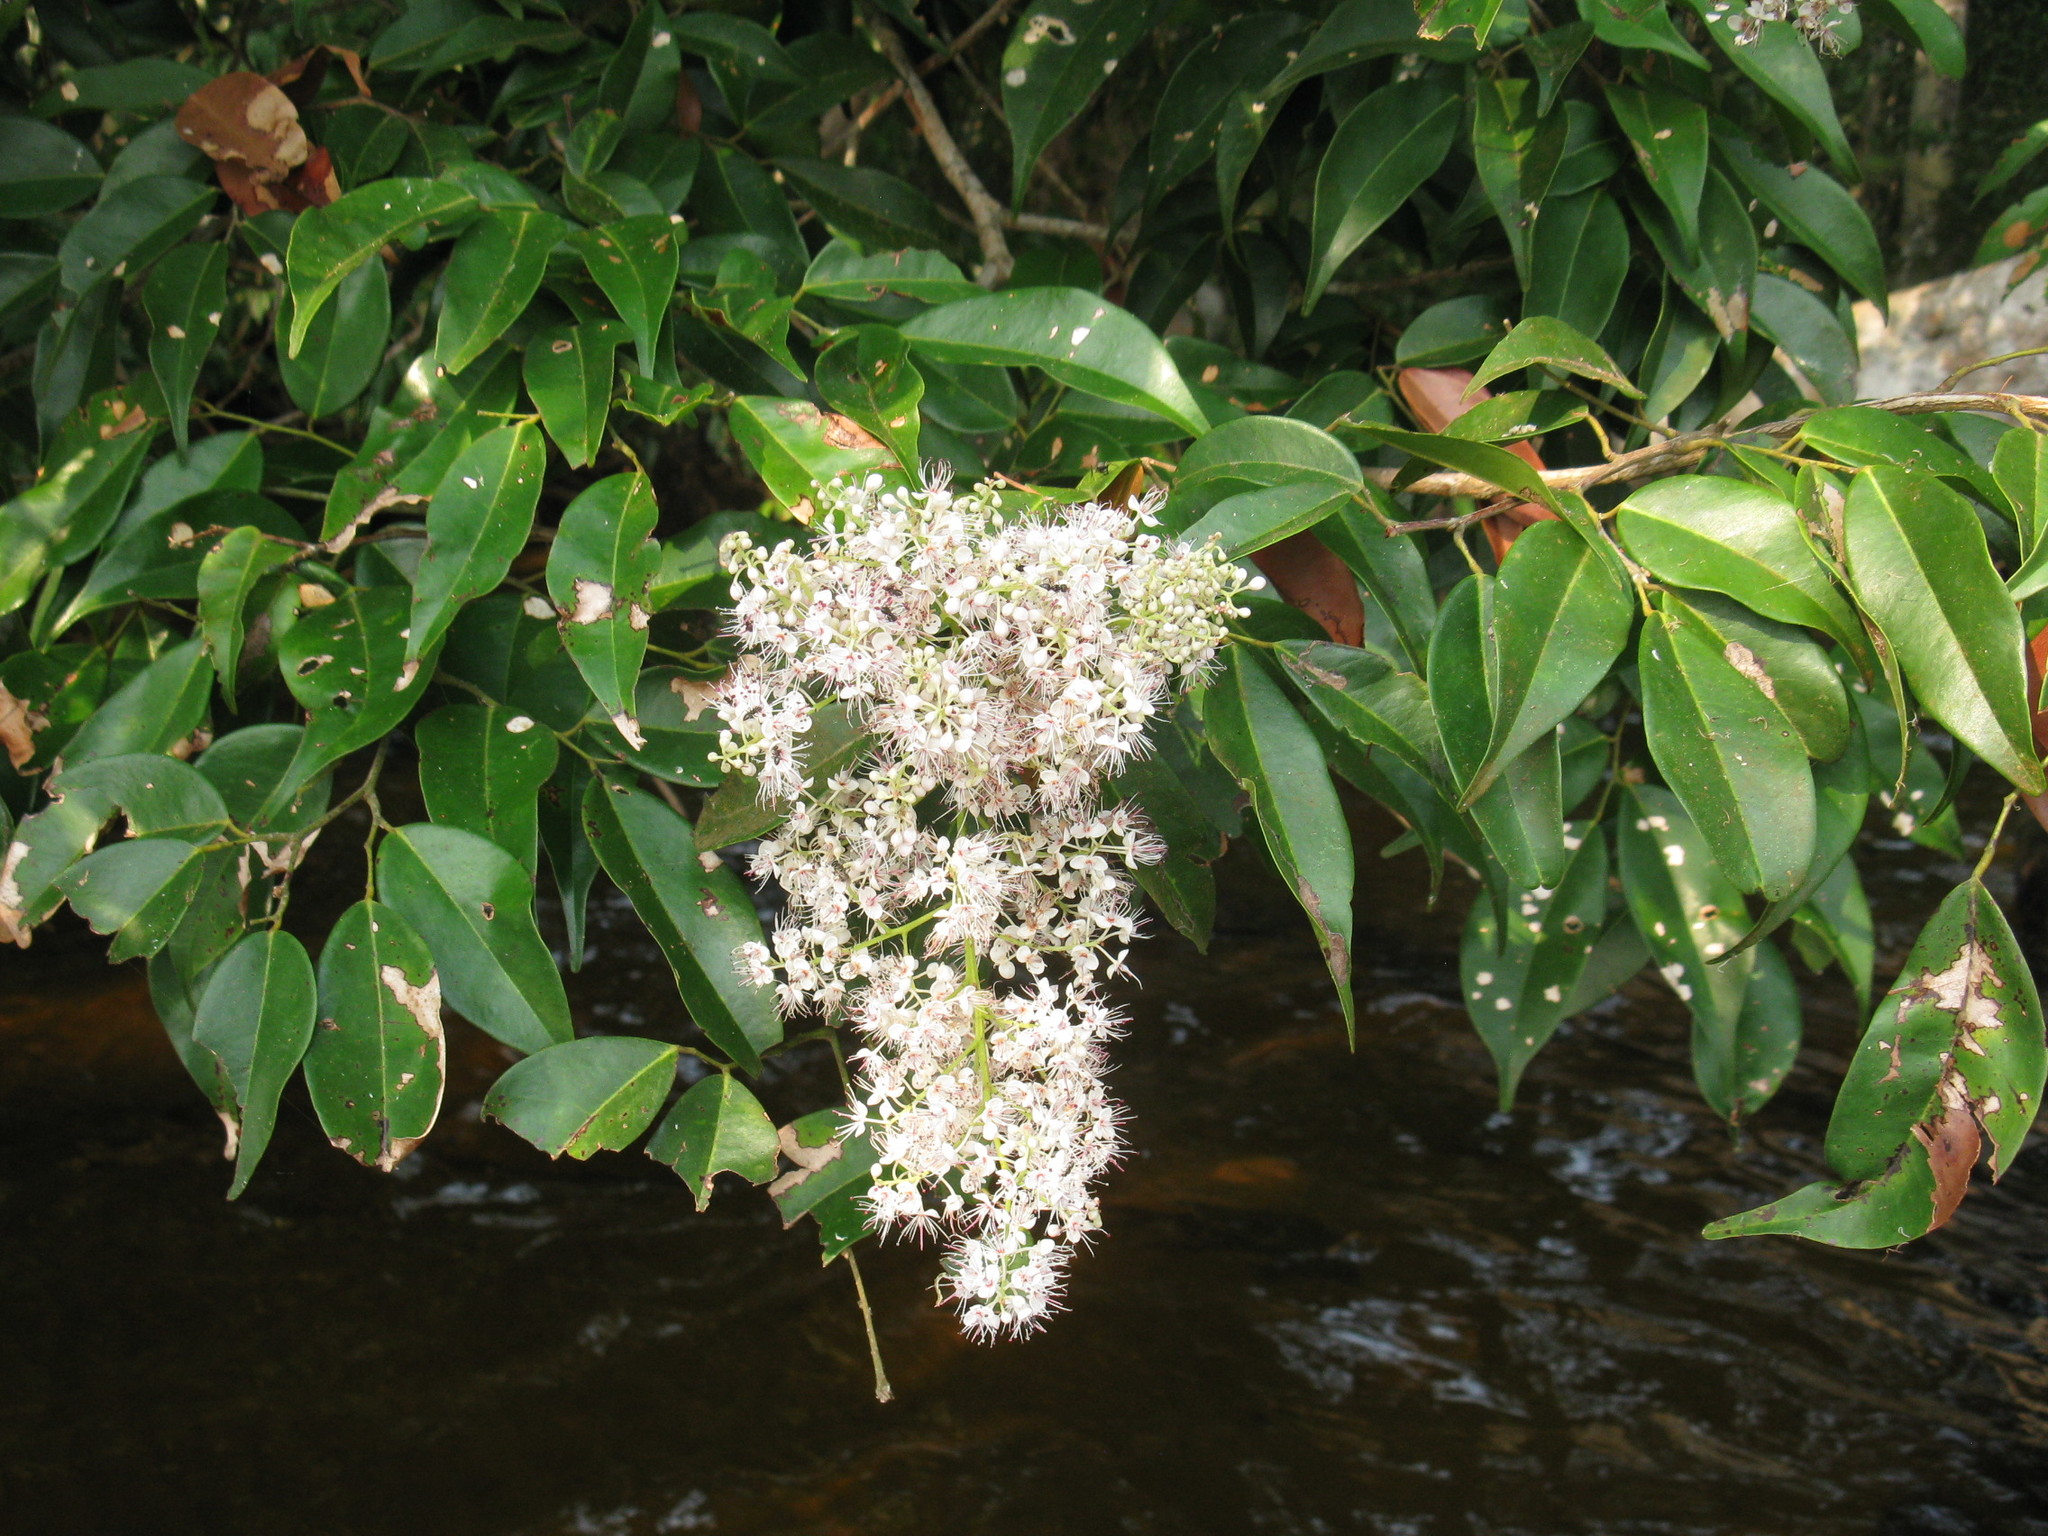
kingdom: Plantae
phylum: Tracheophyta
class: Magnoliopsida
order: Fabales
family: Fabaceae
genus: Librevillea
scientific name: Librevillea klainei
